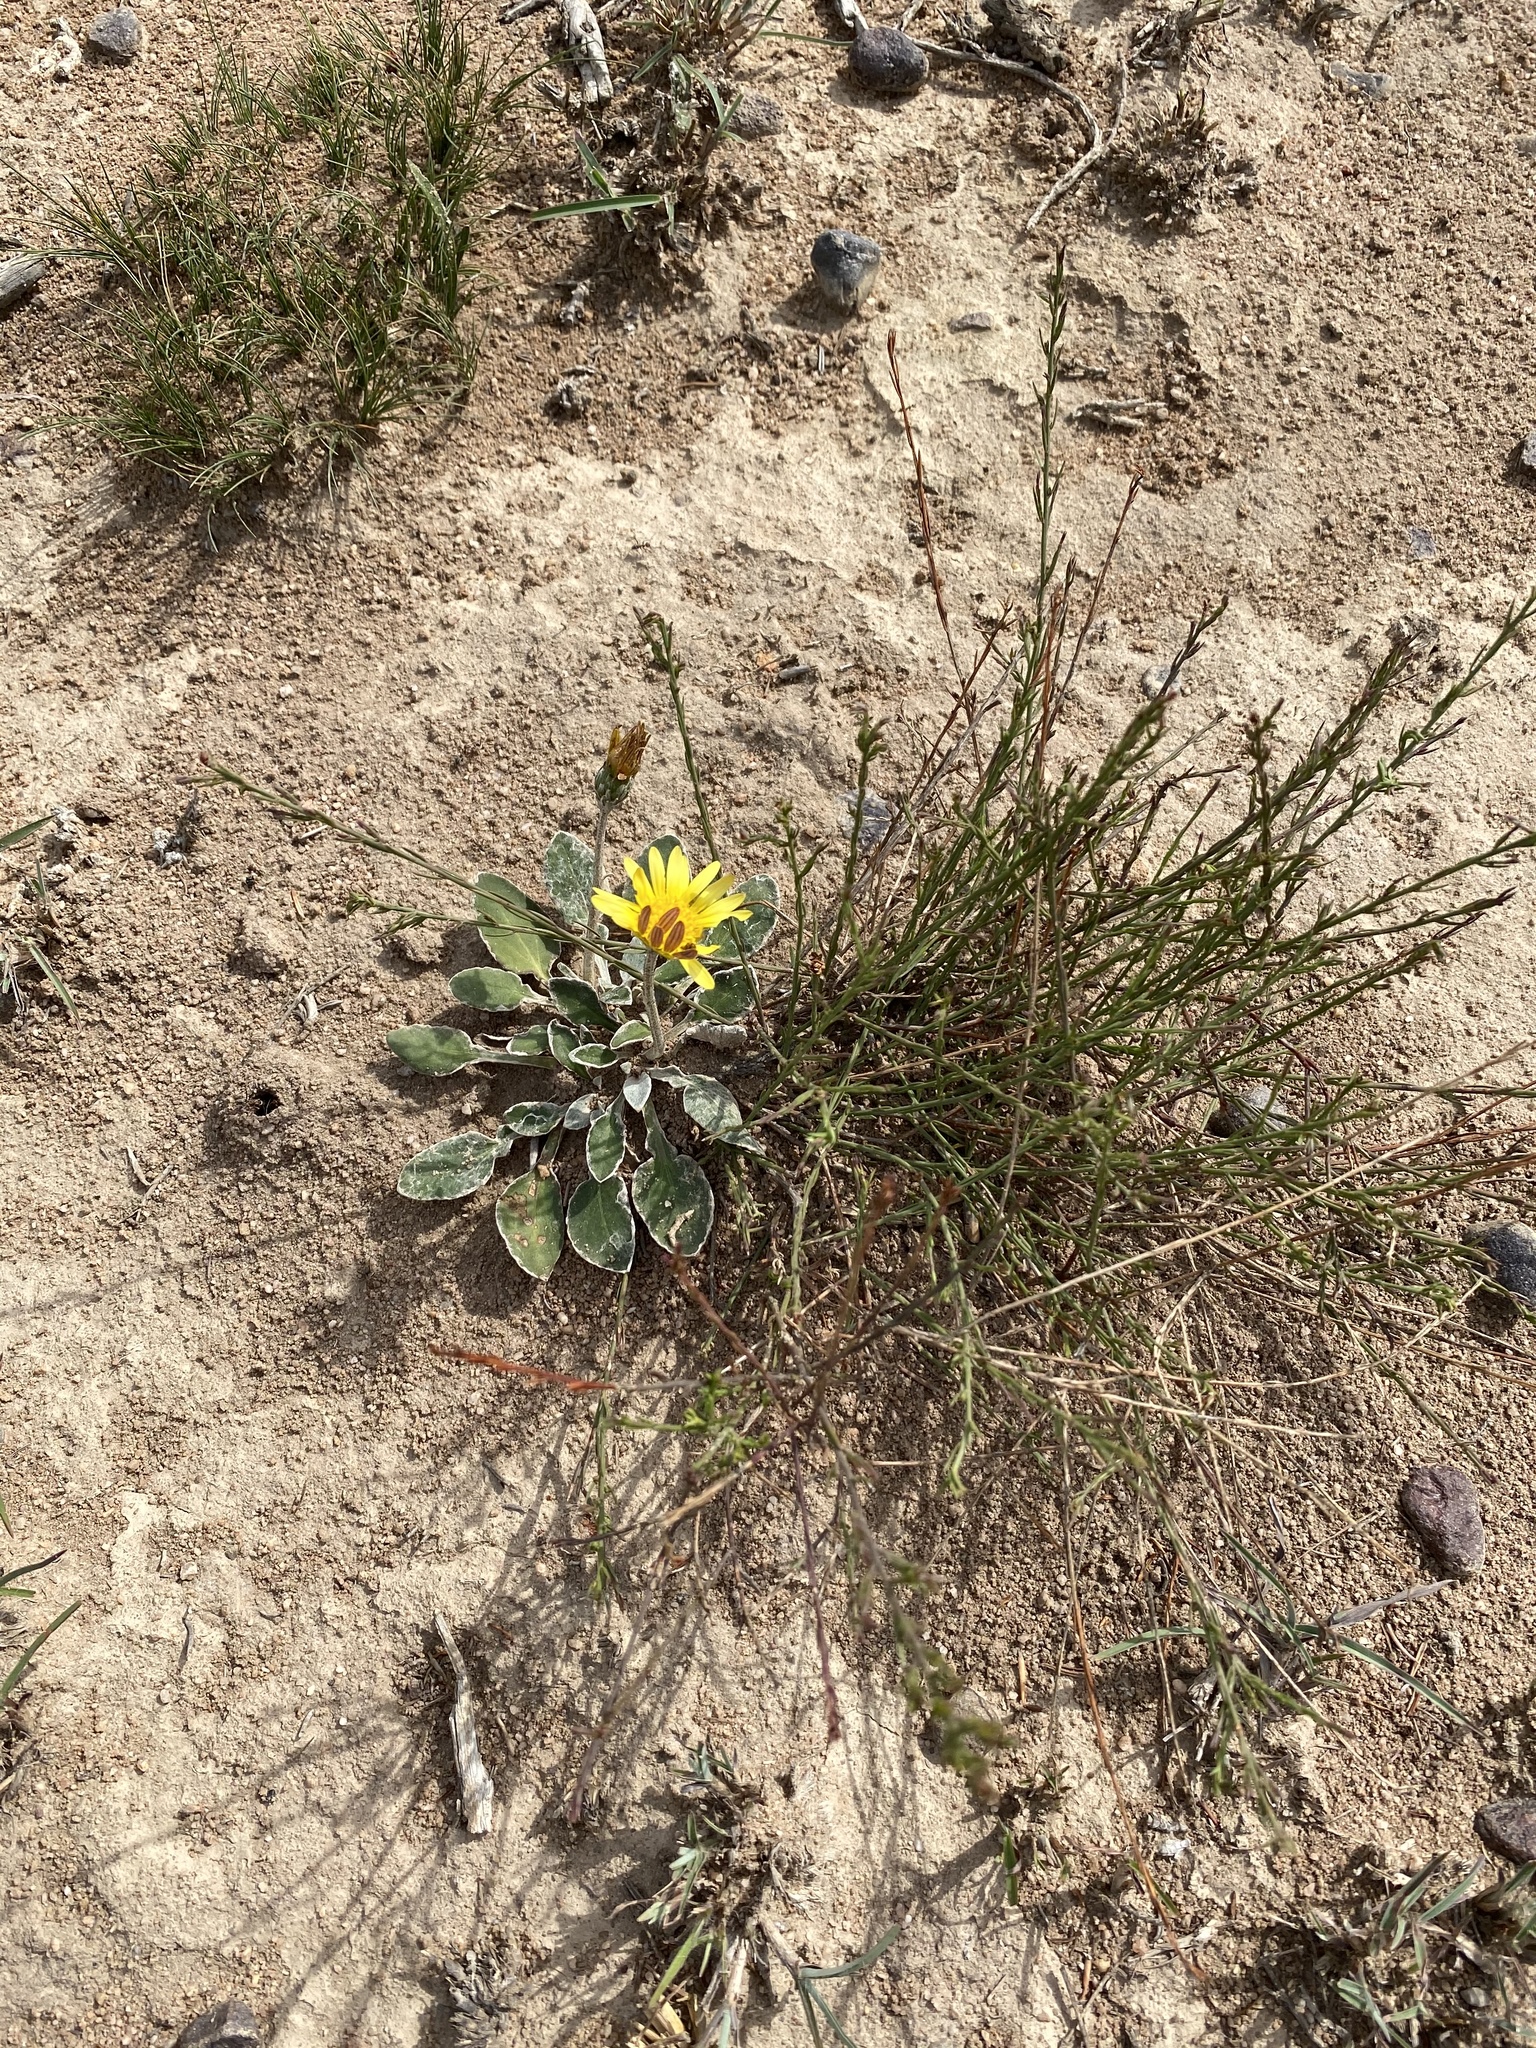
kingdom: Plantae
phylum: Tracheophyta
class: Magnoliopsida
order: Asterales
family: Asteraceae
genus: Haplocarpha
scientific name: Haplocarpha lyrata
